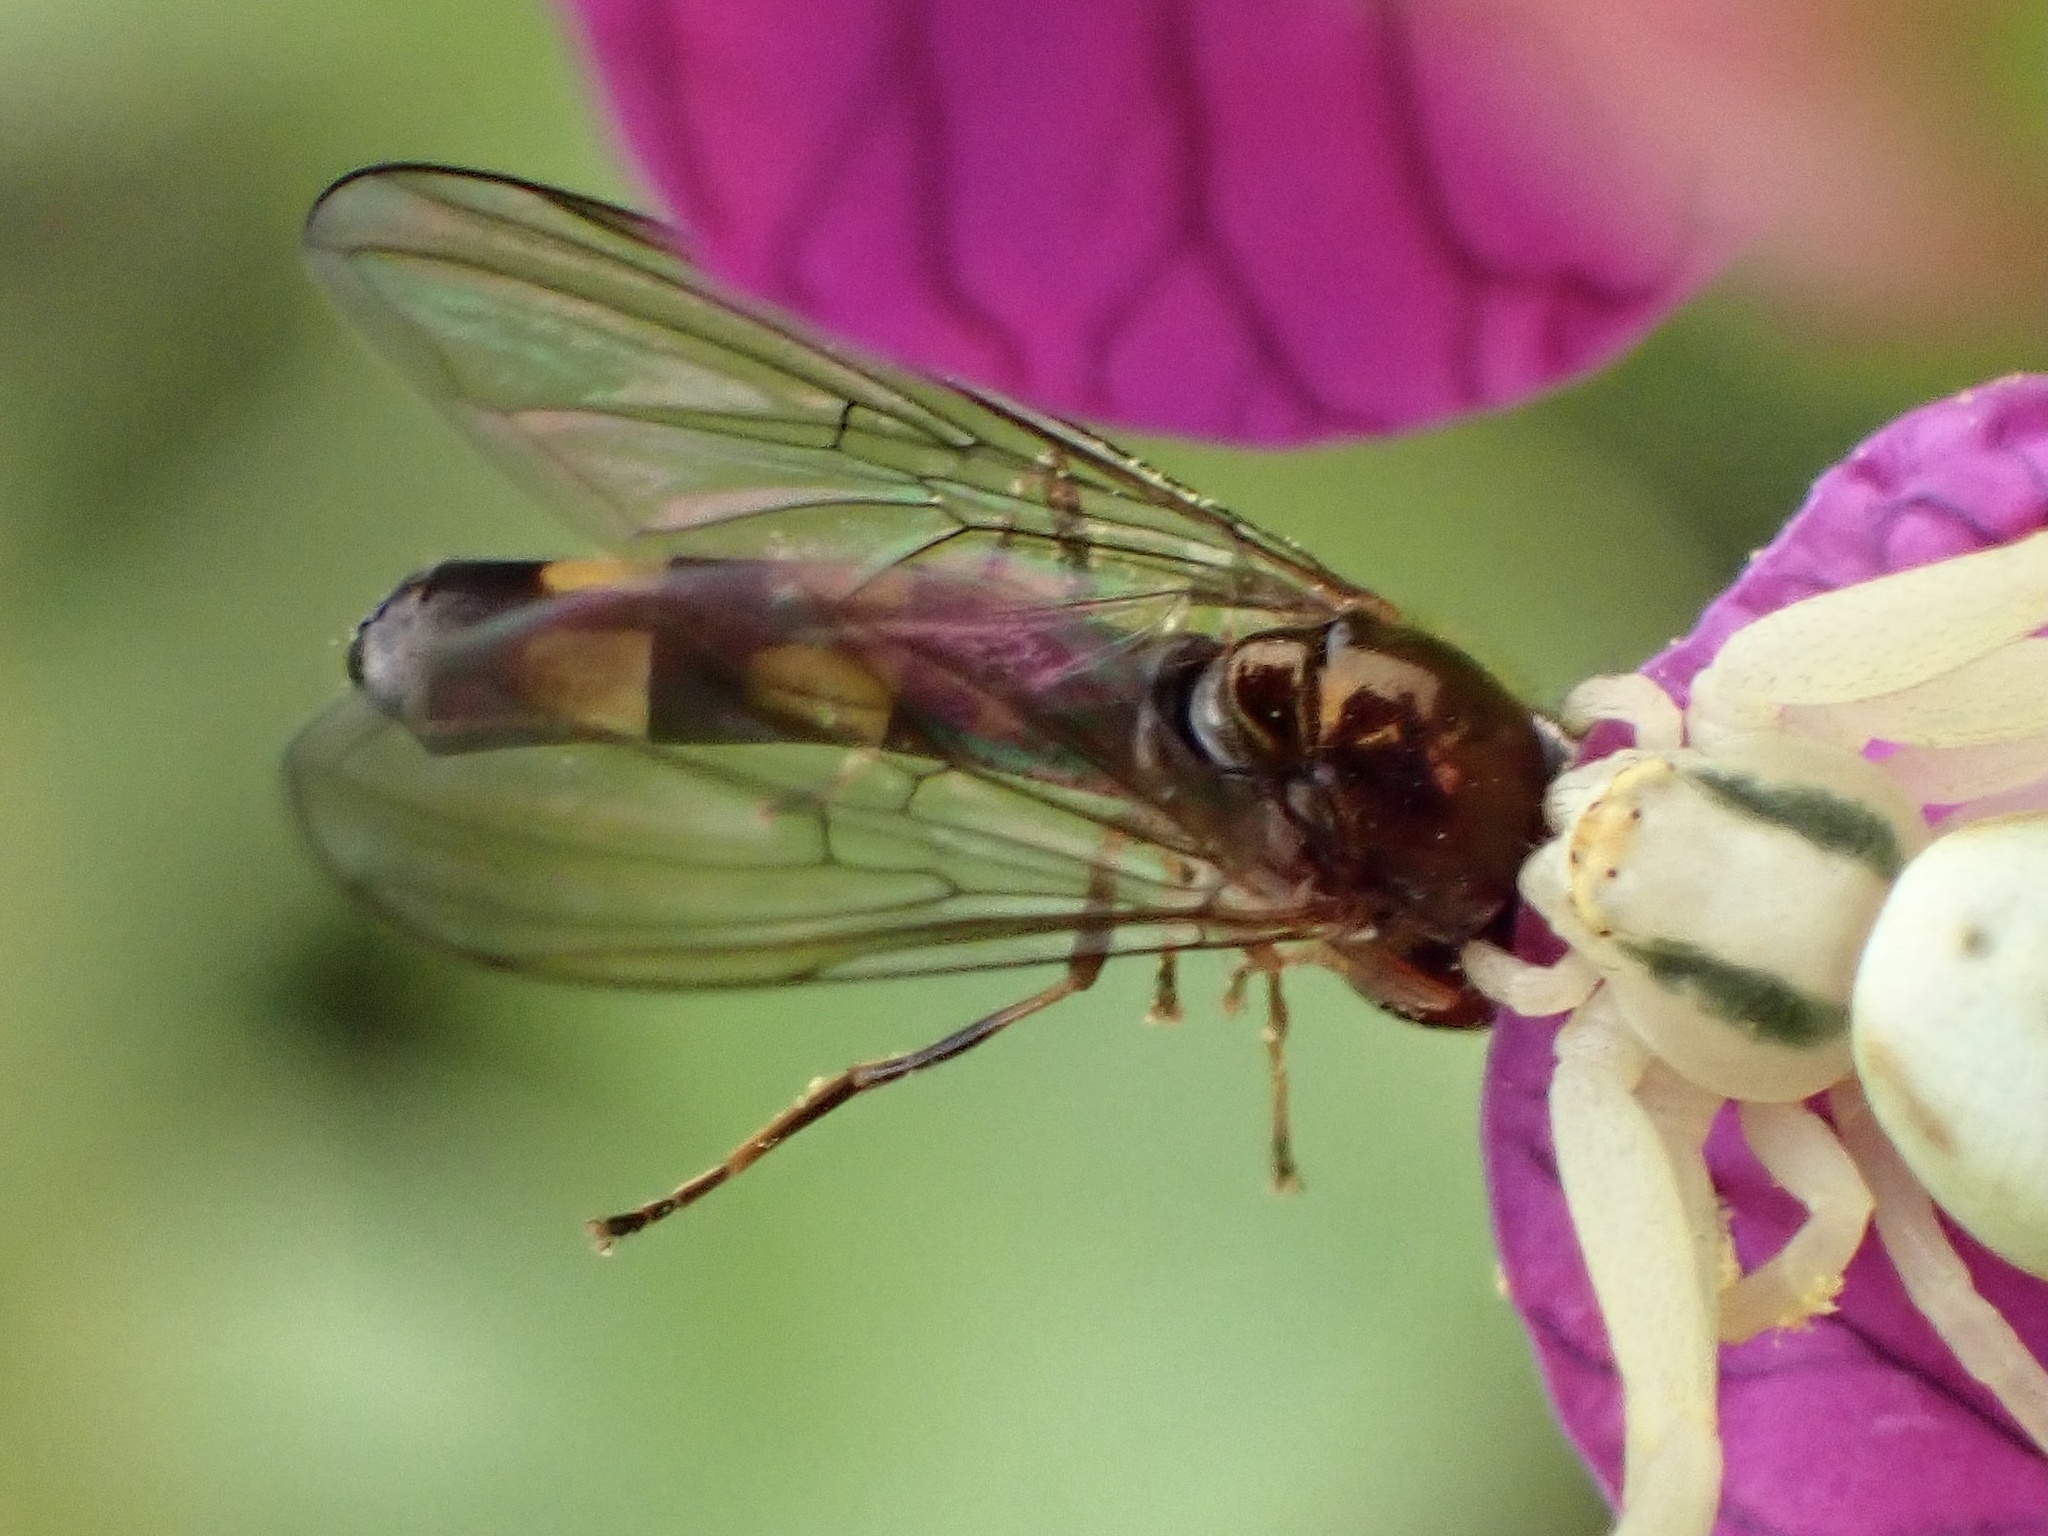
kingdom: Animalia
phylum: Arthropoda
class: Insecta
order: Diptera
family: Syrphidae
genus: Melanostoma
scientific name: Melanostoma mellina
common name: Hover fly
